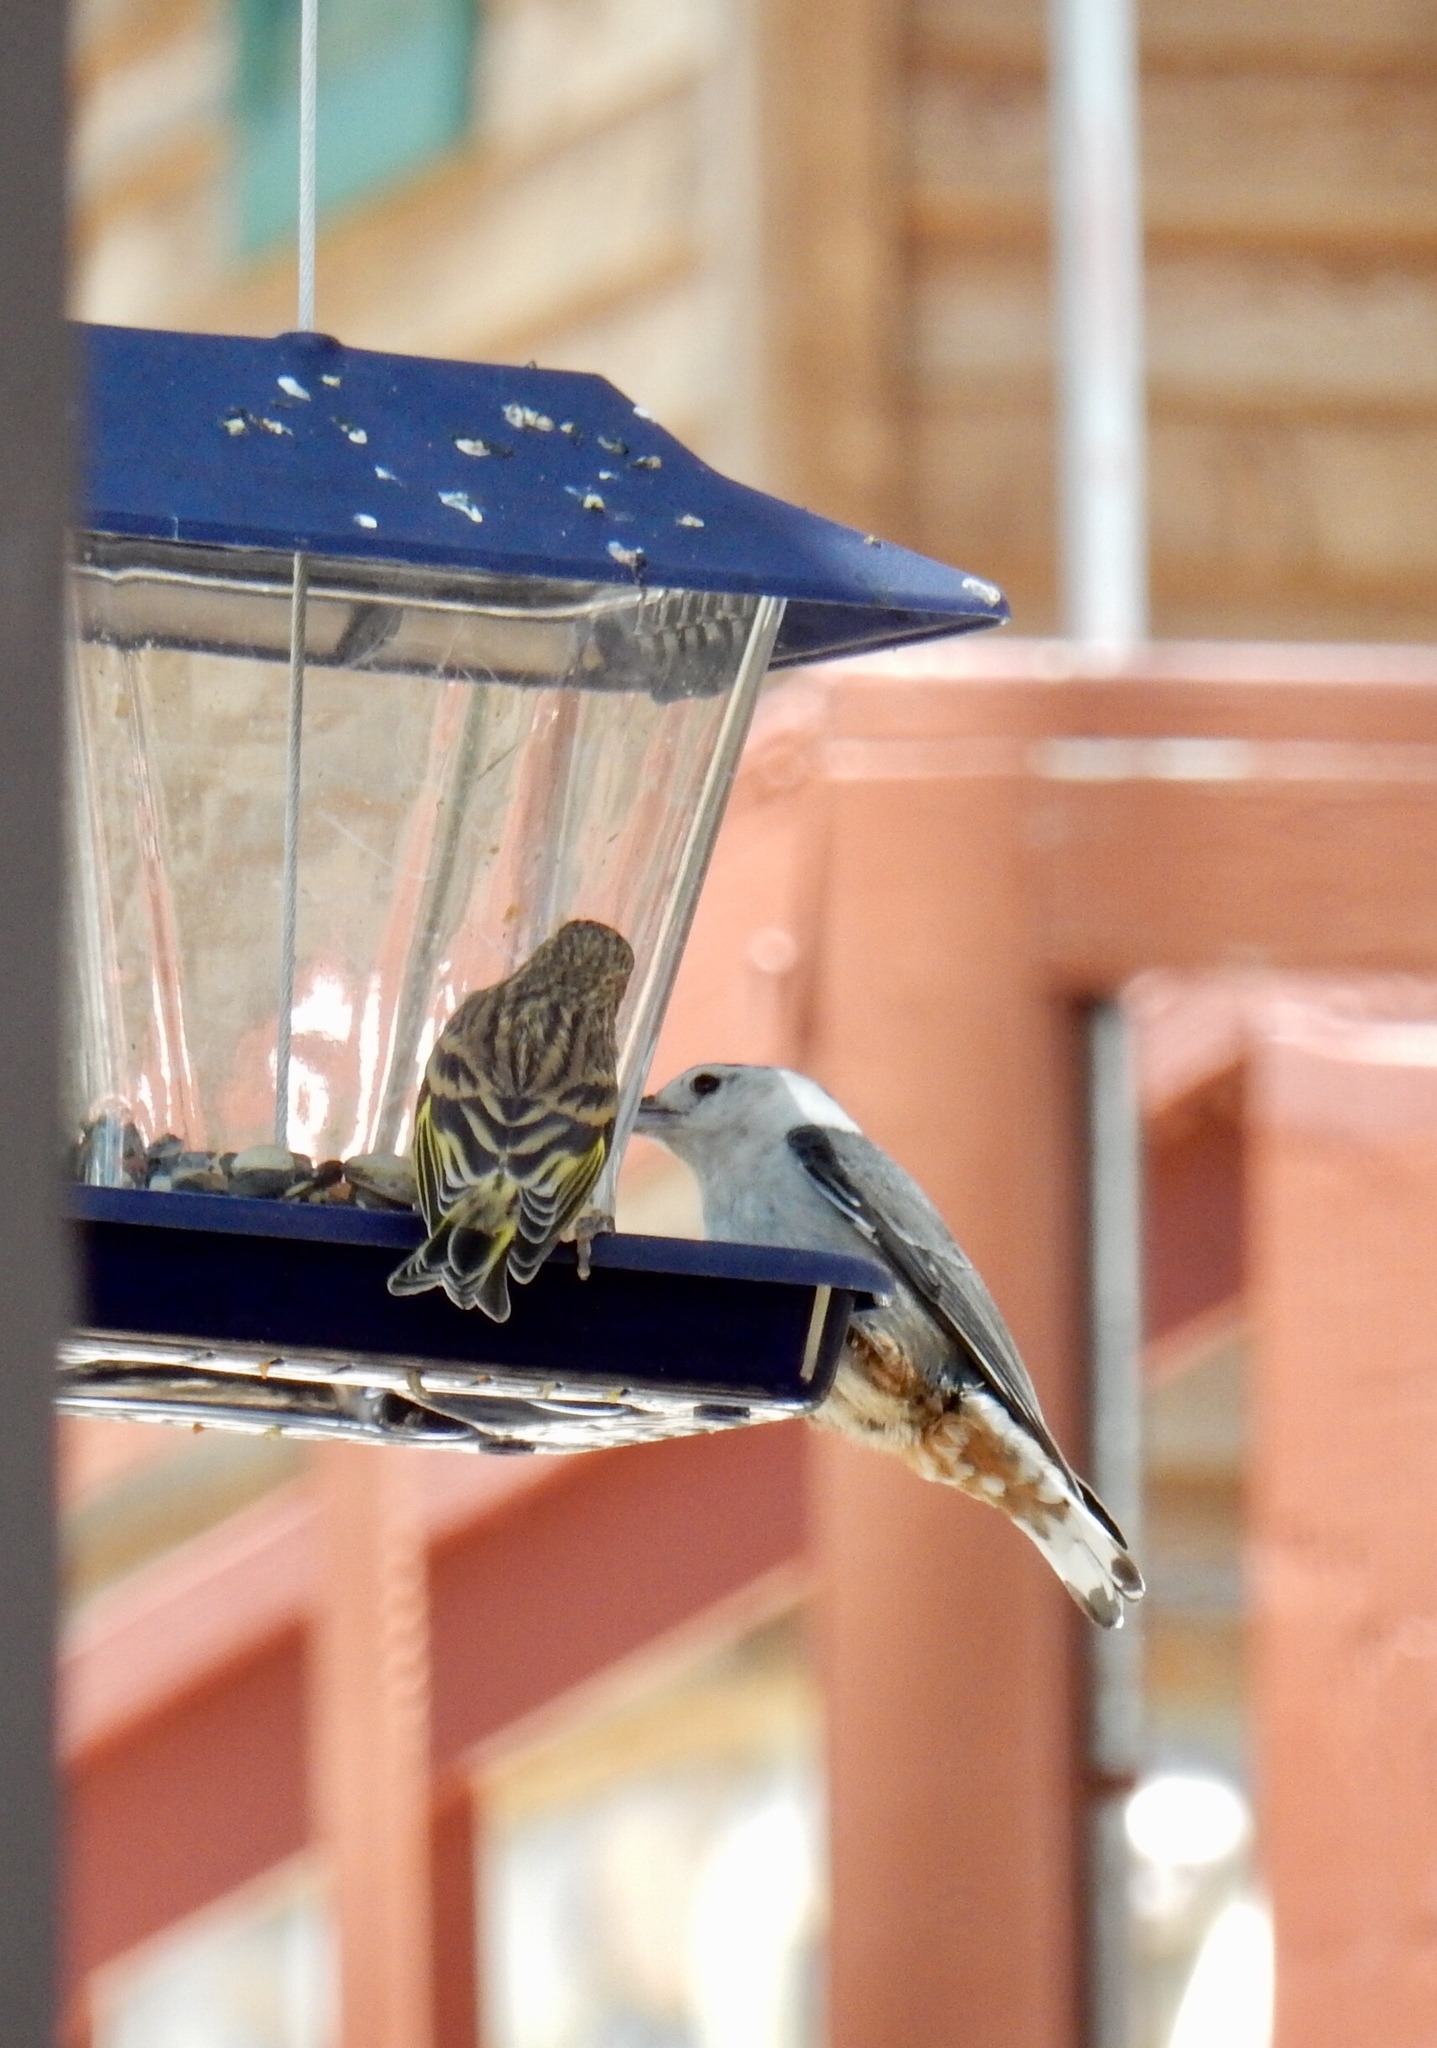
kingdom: Animalia
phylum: Chordata
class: Aves
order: Passeriformes
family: Sittidae
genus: Sitta
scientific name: Sitta carolinensis
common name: White-breasted nuthatch
